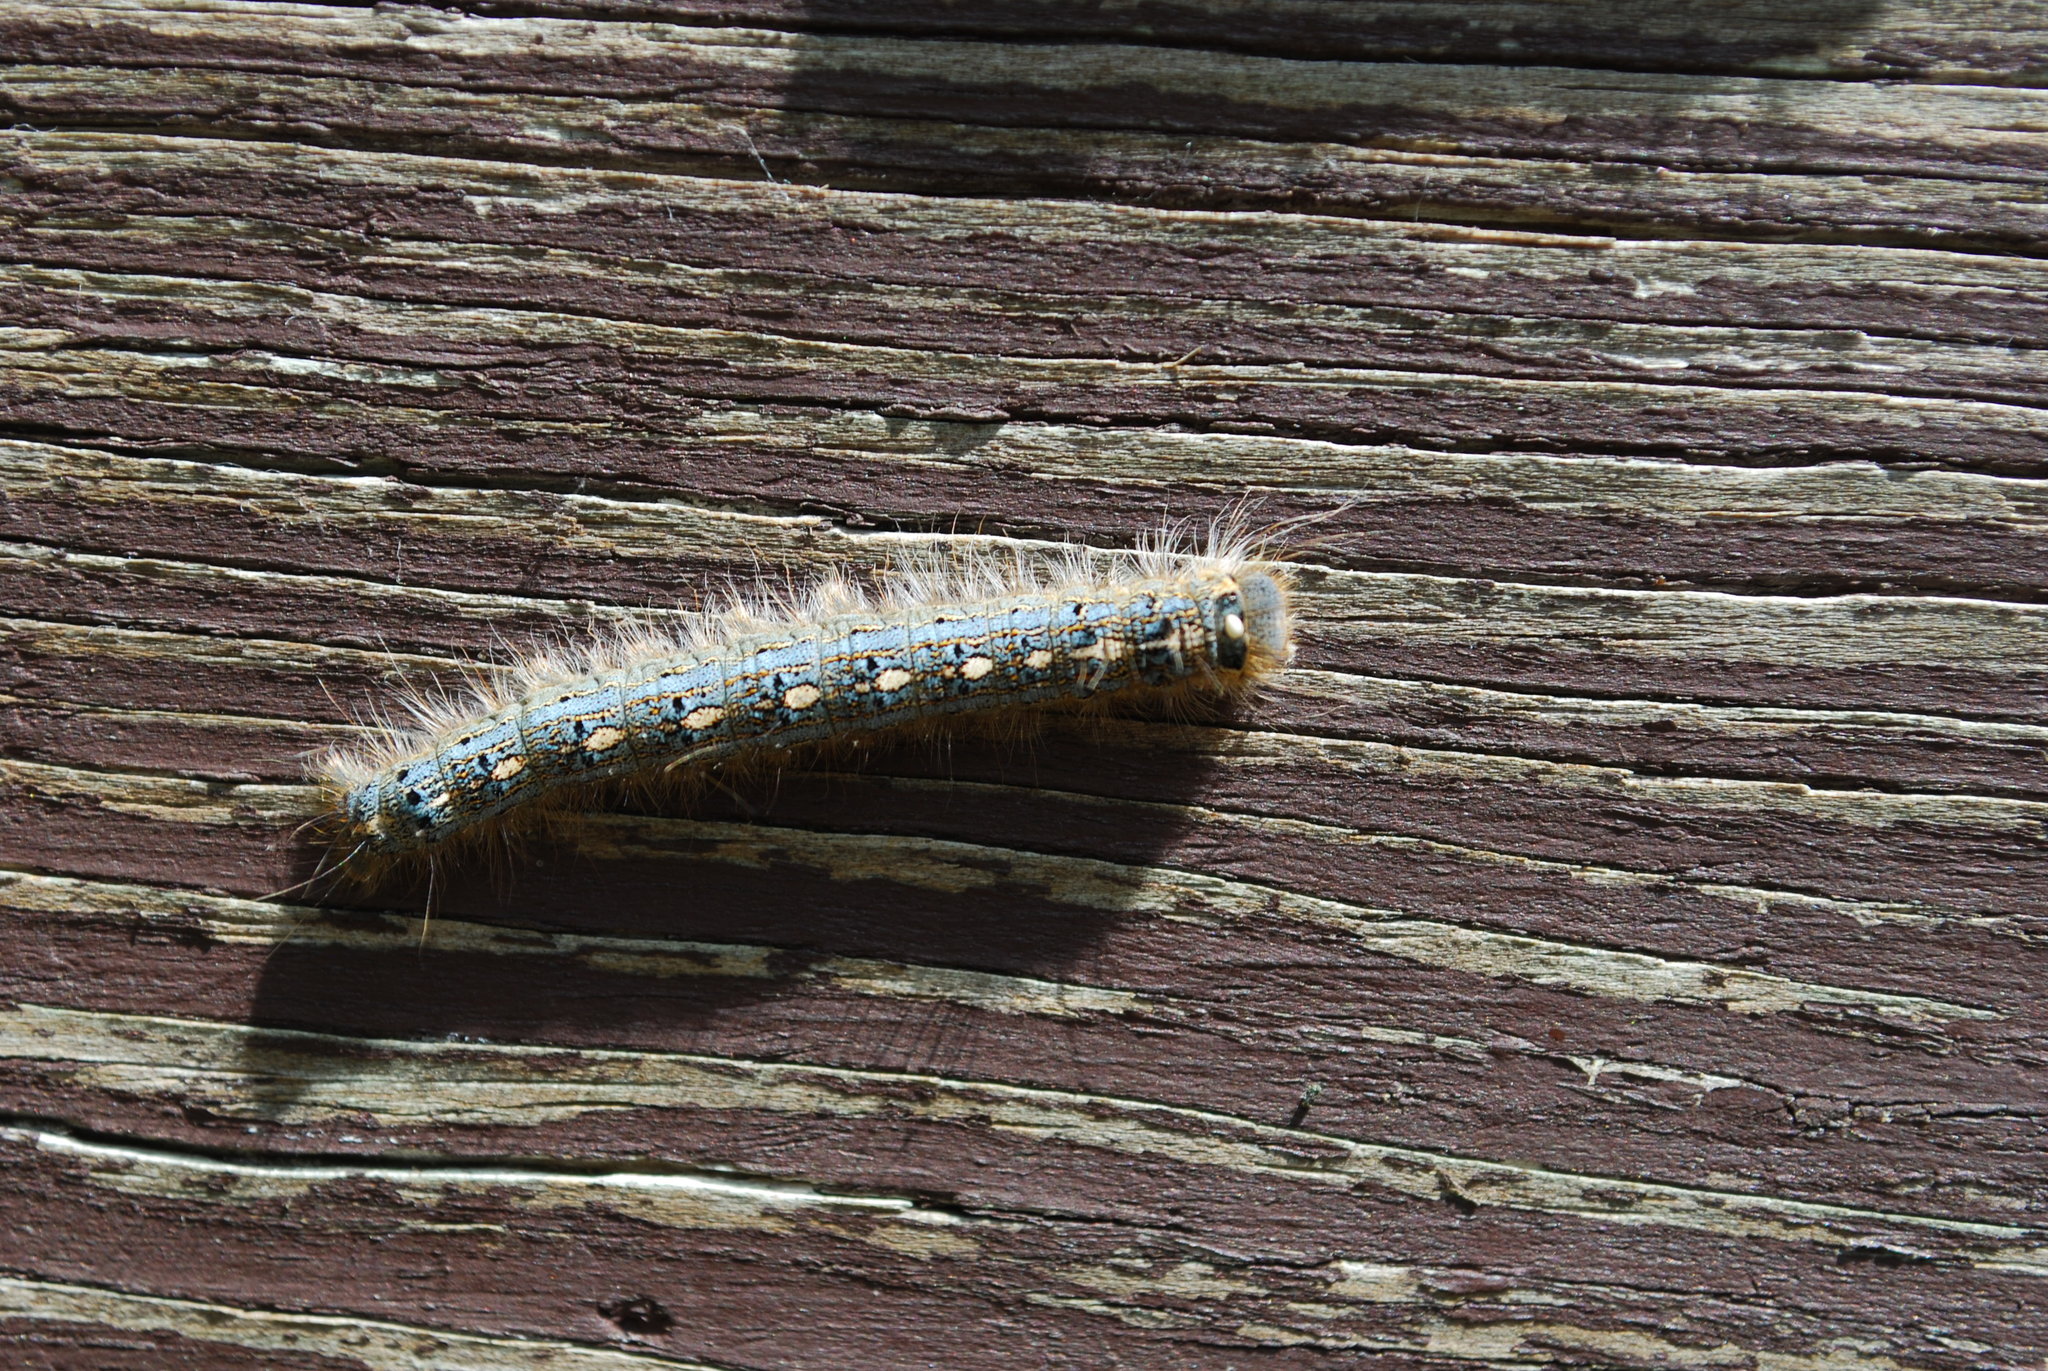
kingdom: Animalia
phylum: Arthropoda
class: Insecta
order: Lepidoptera
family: Lasiocampidae
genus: Malacosoma
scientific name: Malacosoma disstria
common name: Forest tent caterpillar
